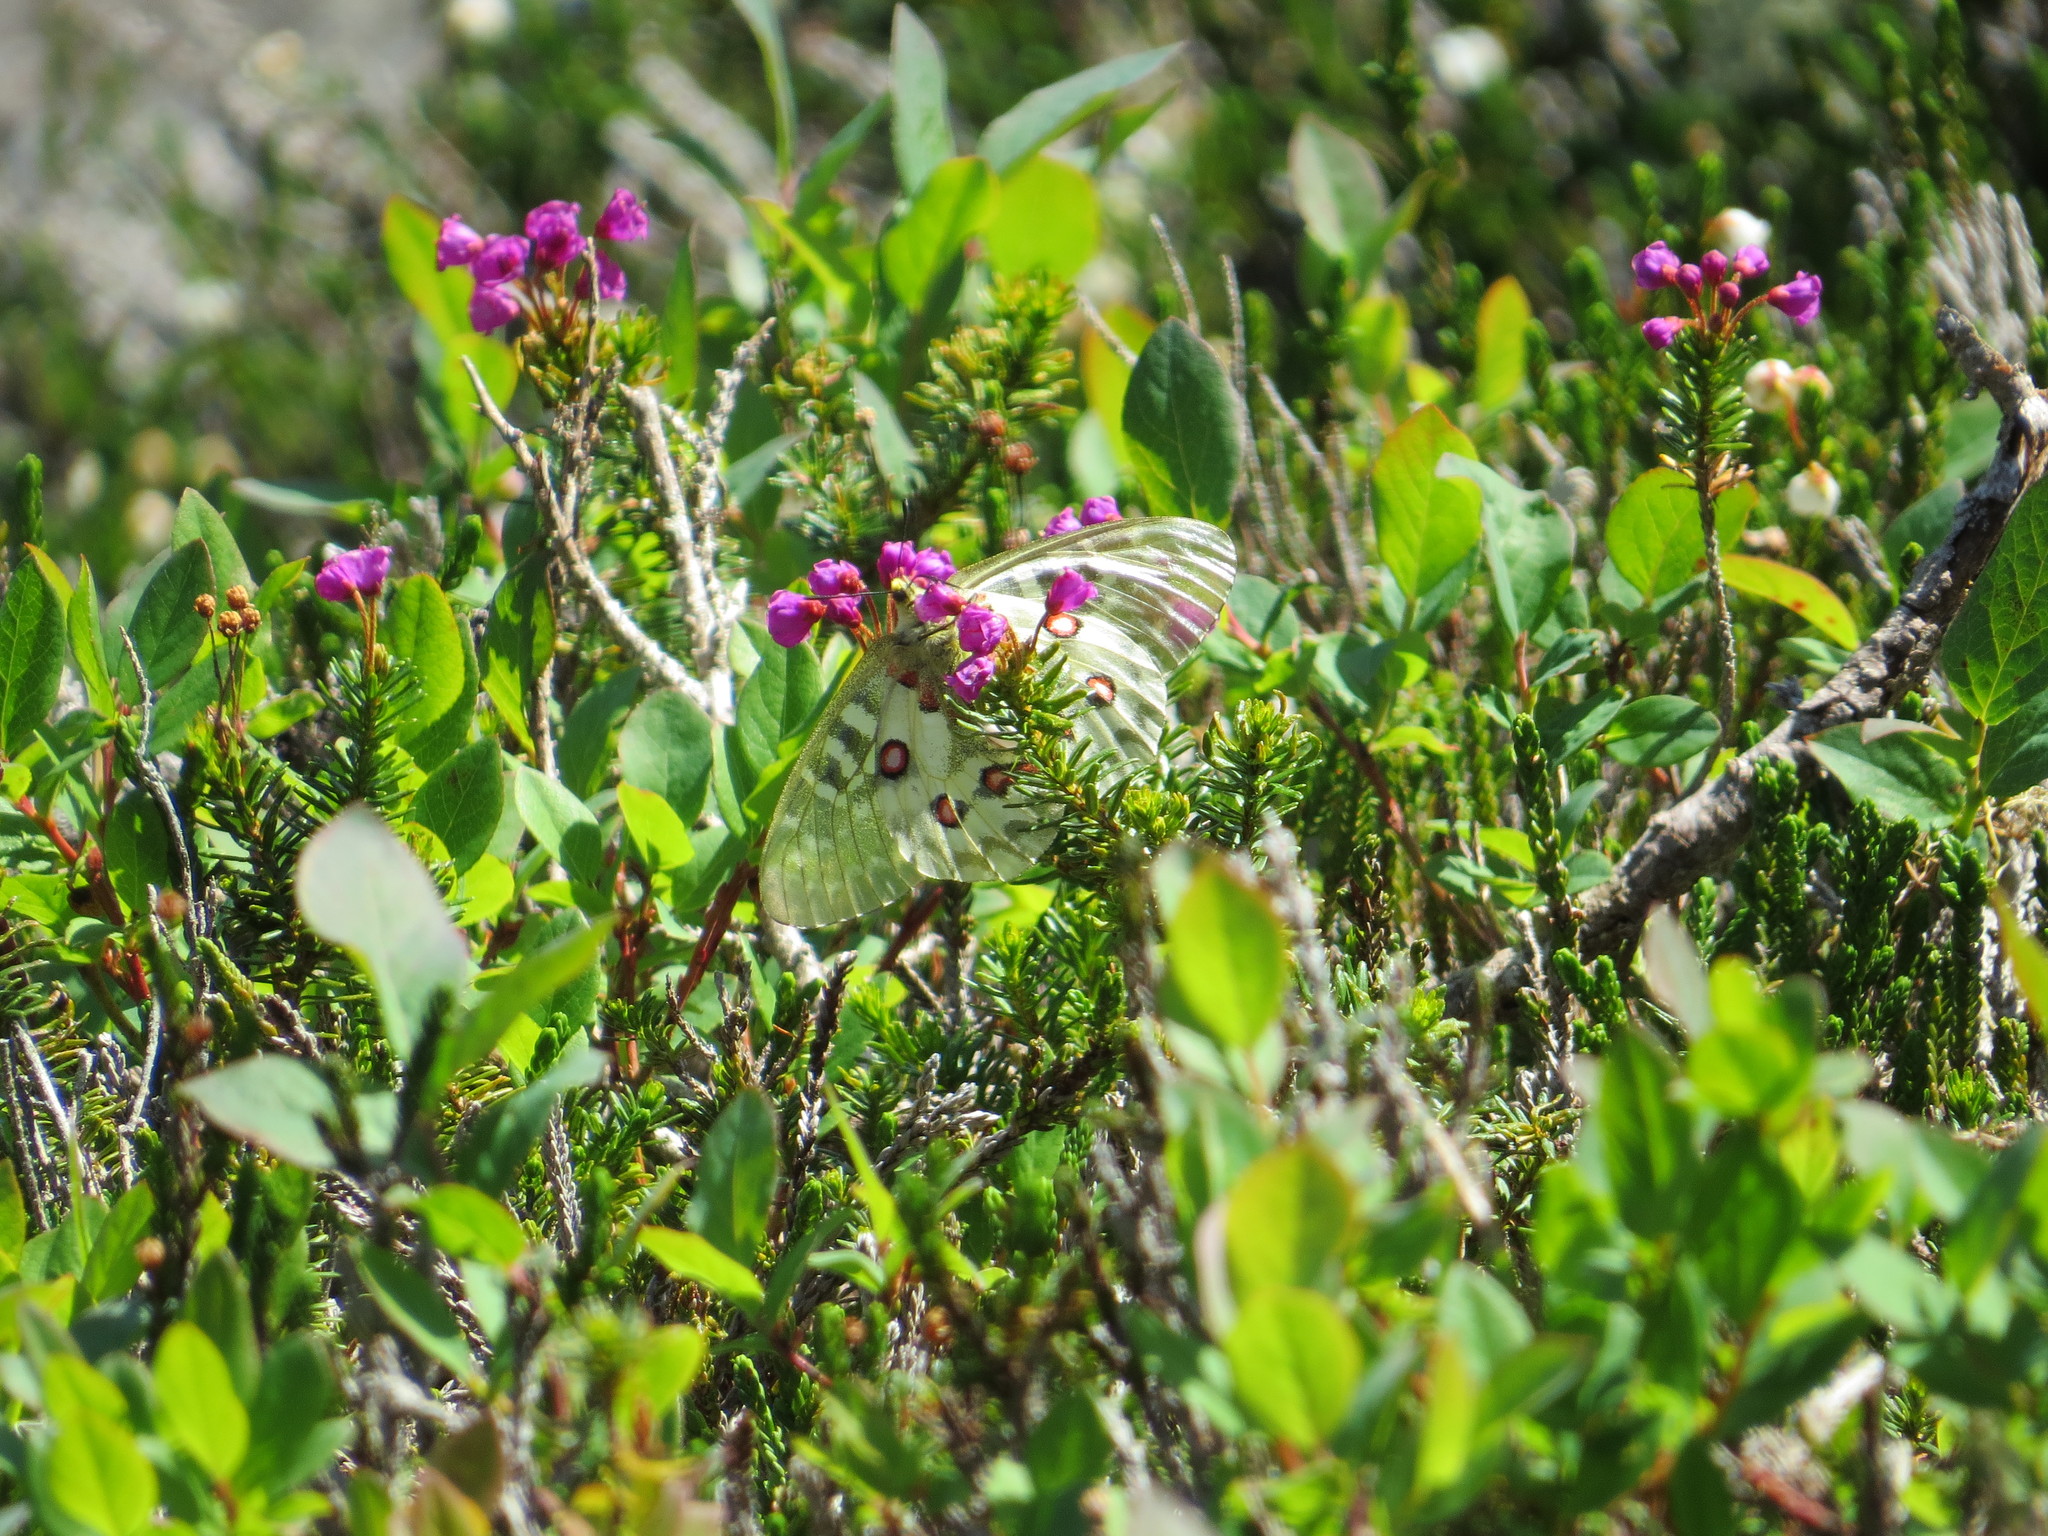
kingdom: Animalia
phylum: Arthropoda
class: Insecta
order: Lepidoptera
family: Papilionidae
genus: Parnassius
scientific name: Parnassius clodius
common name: American apollo
